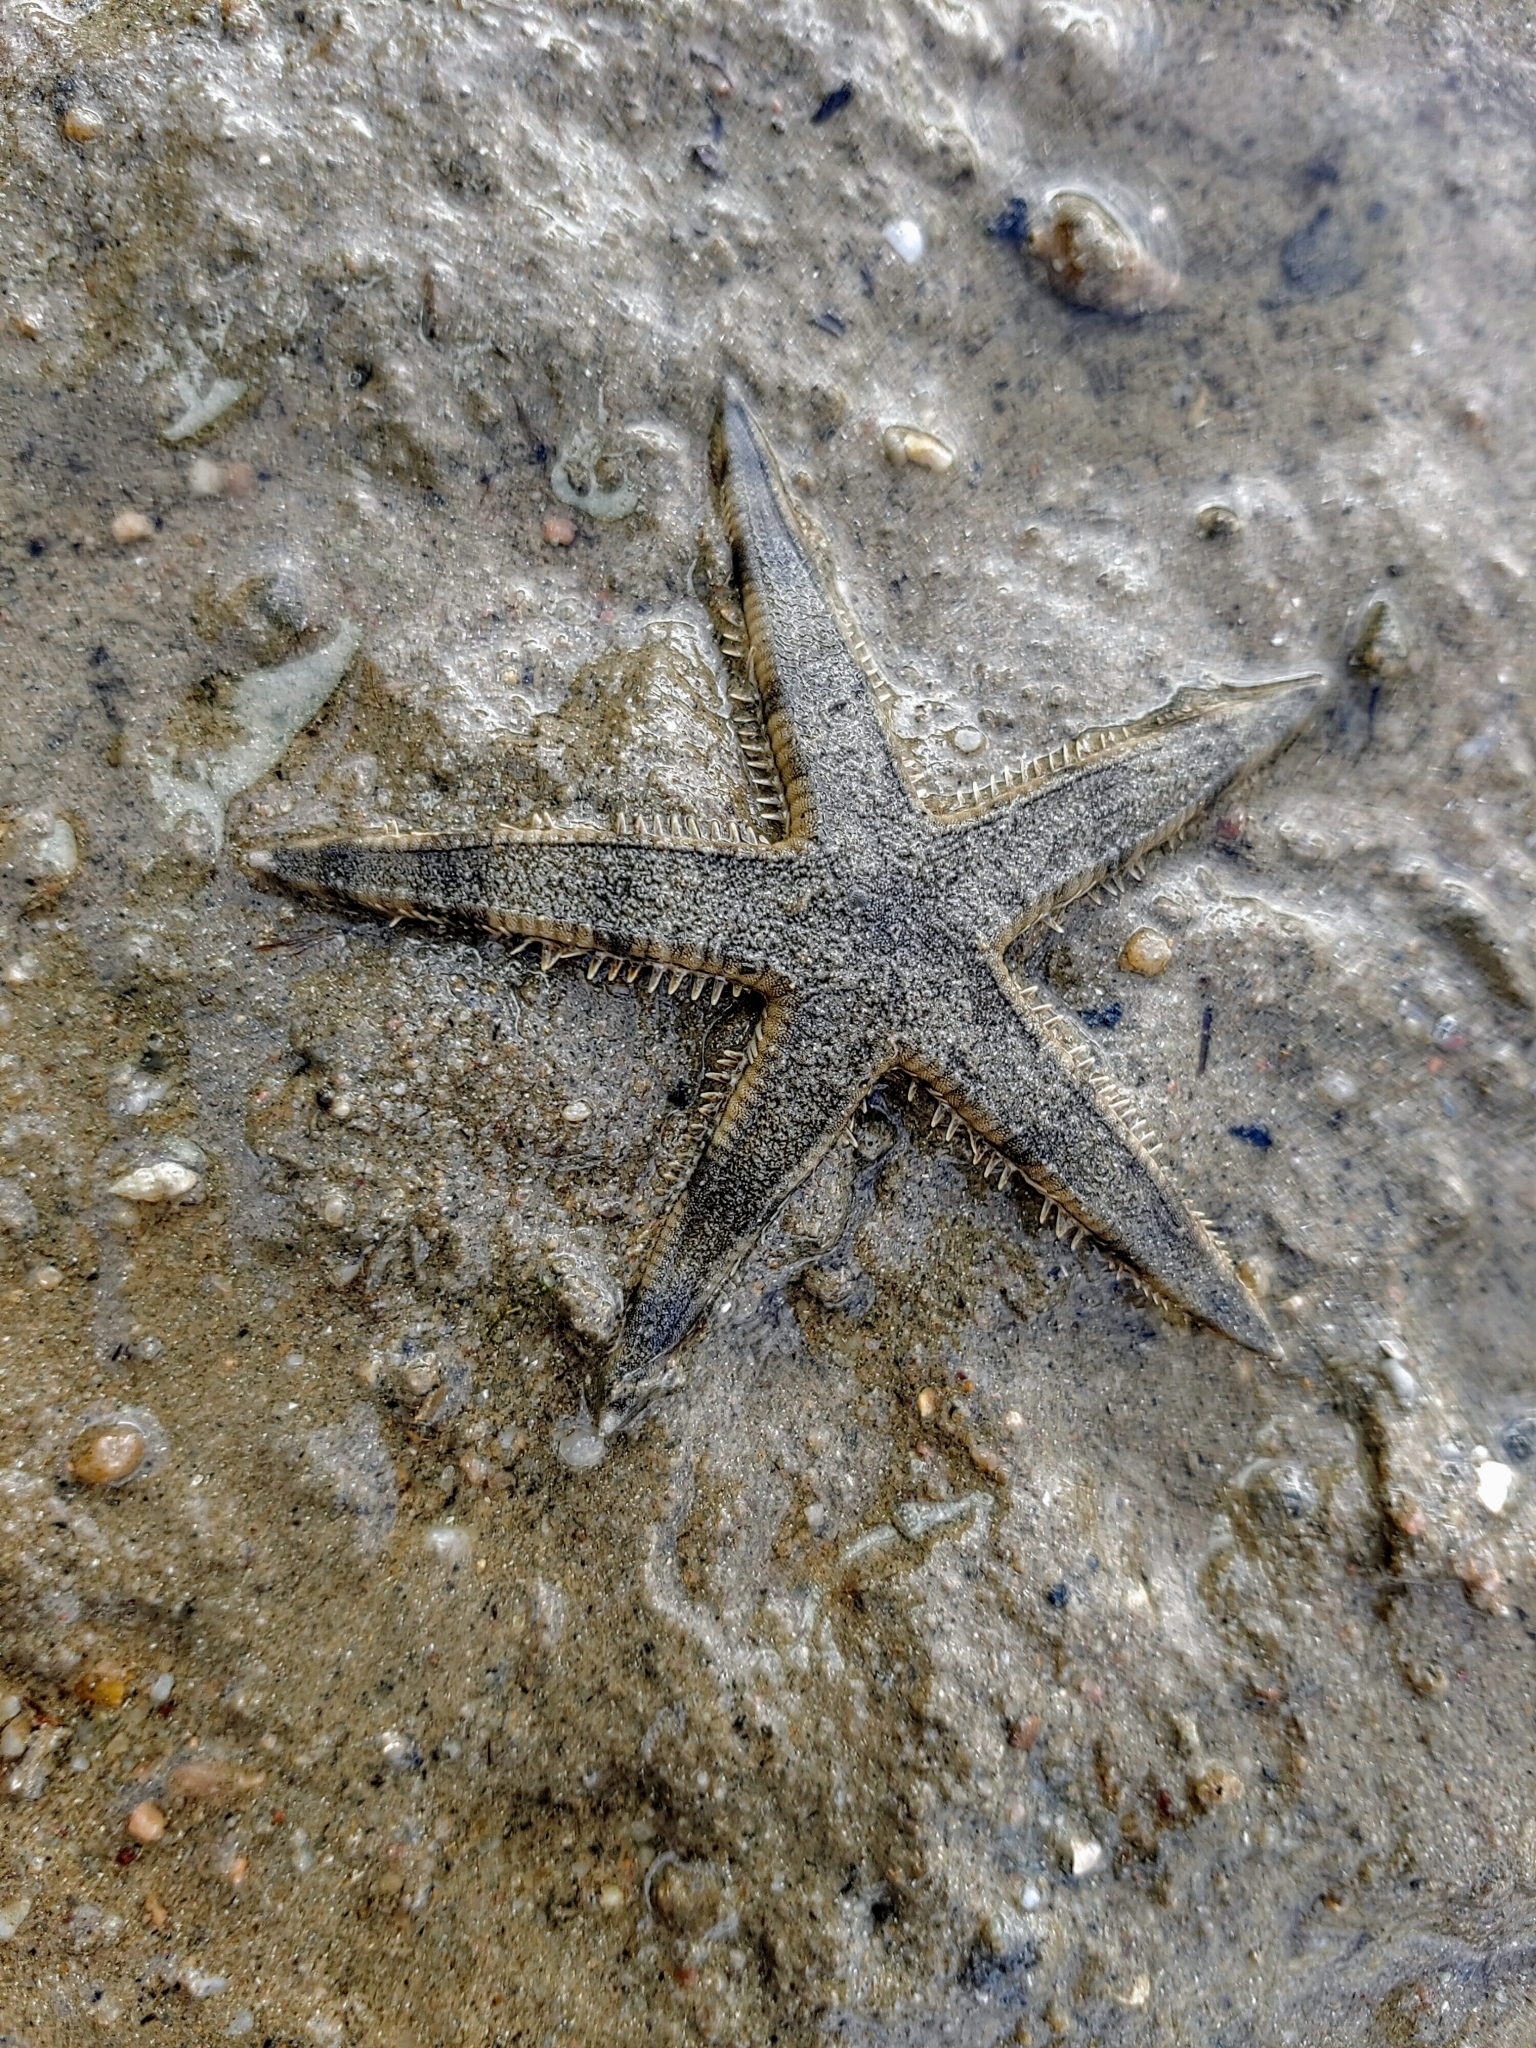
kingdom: Animalia
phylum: Echinodermata
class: Asteroidea
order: Valvatida
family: Archasteridae
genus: Archaster
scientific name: Archaster typicus
